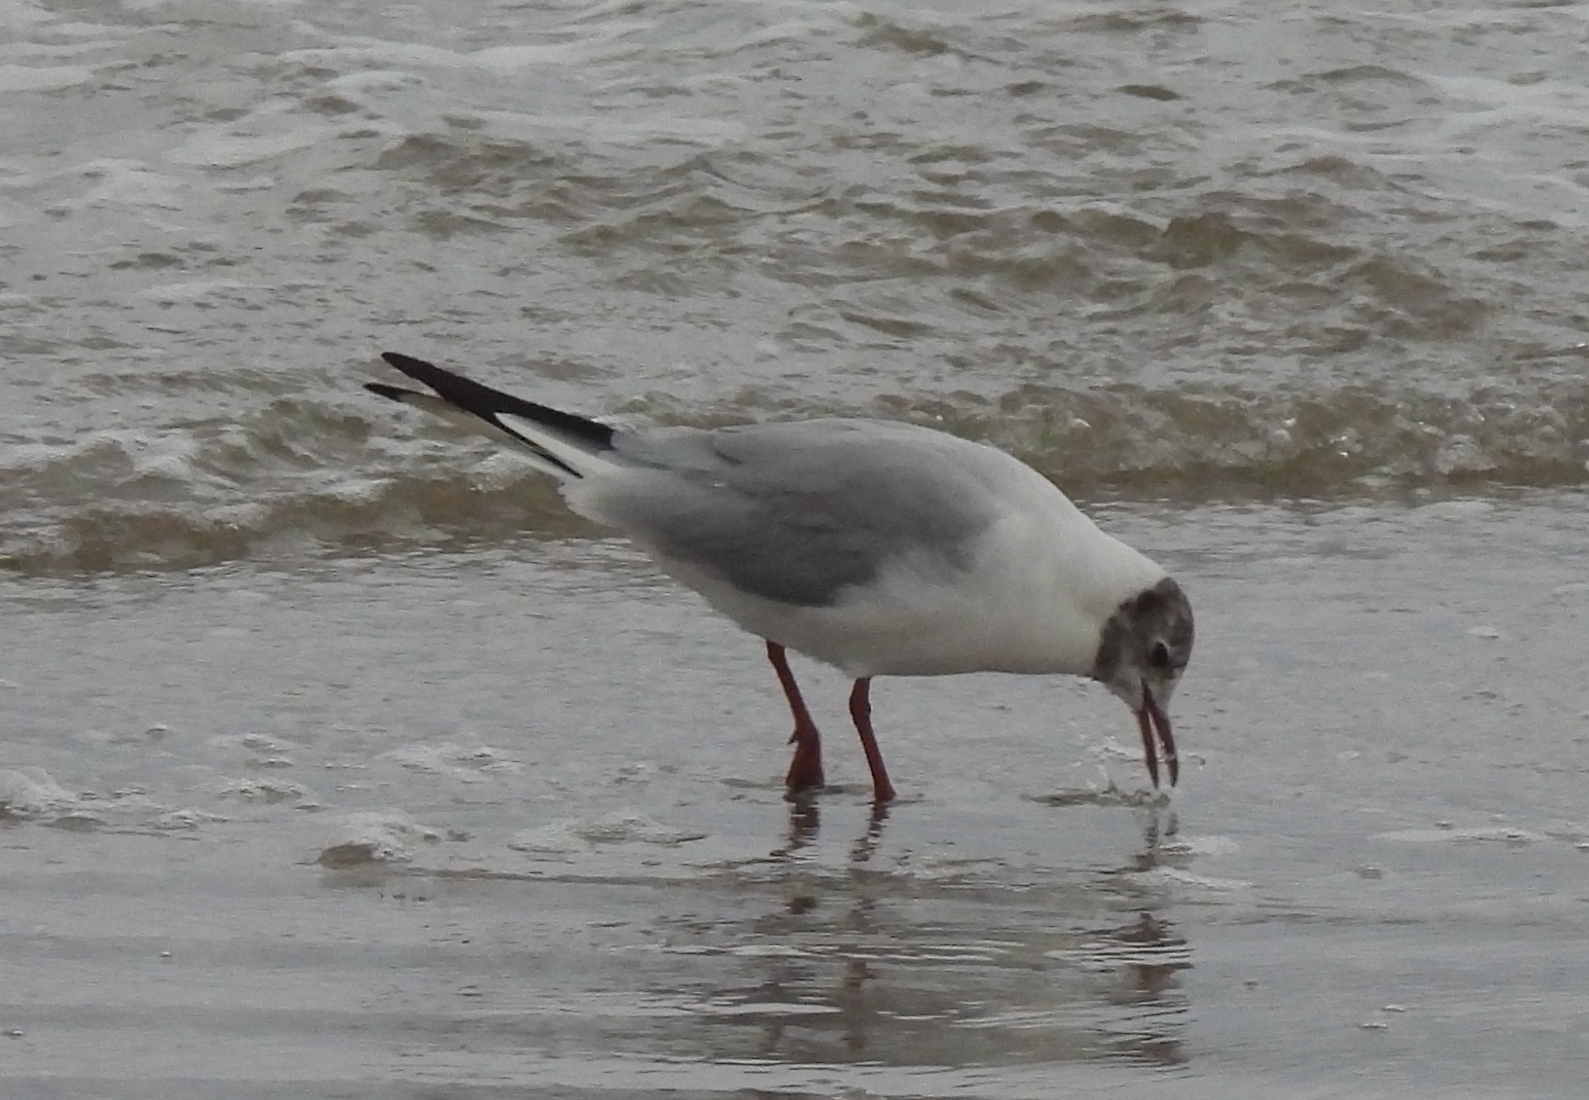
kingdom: Animalia
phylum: Chordata
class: Aves
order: Charadriiformes
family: Laridae
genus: Chroicocephalus
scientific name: Chroicocephalus ridibundus
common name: Black-headed gull
